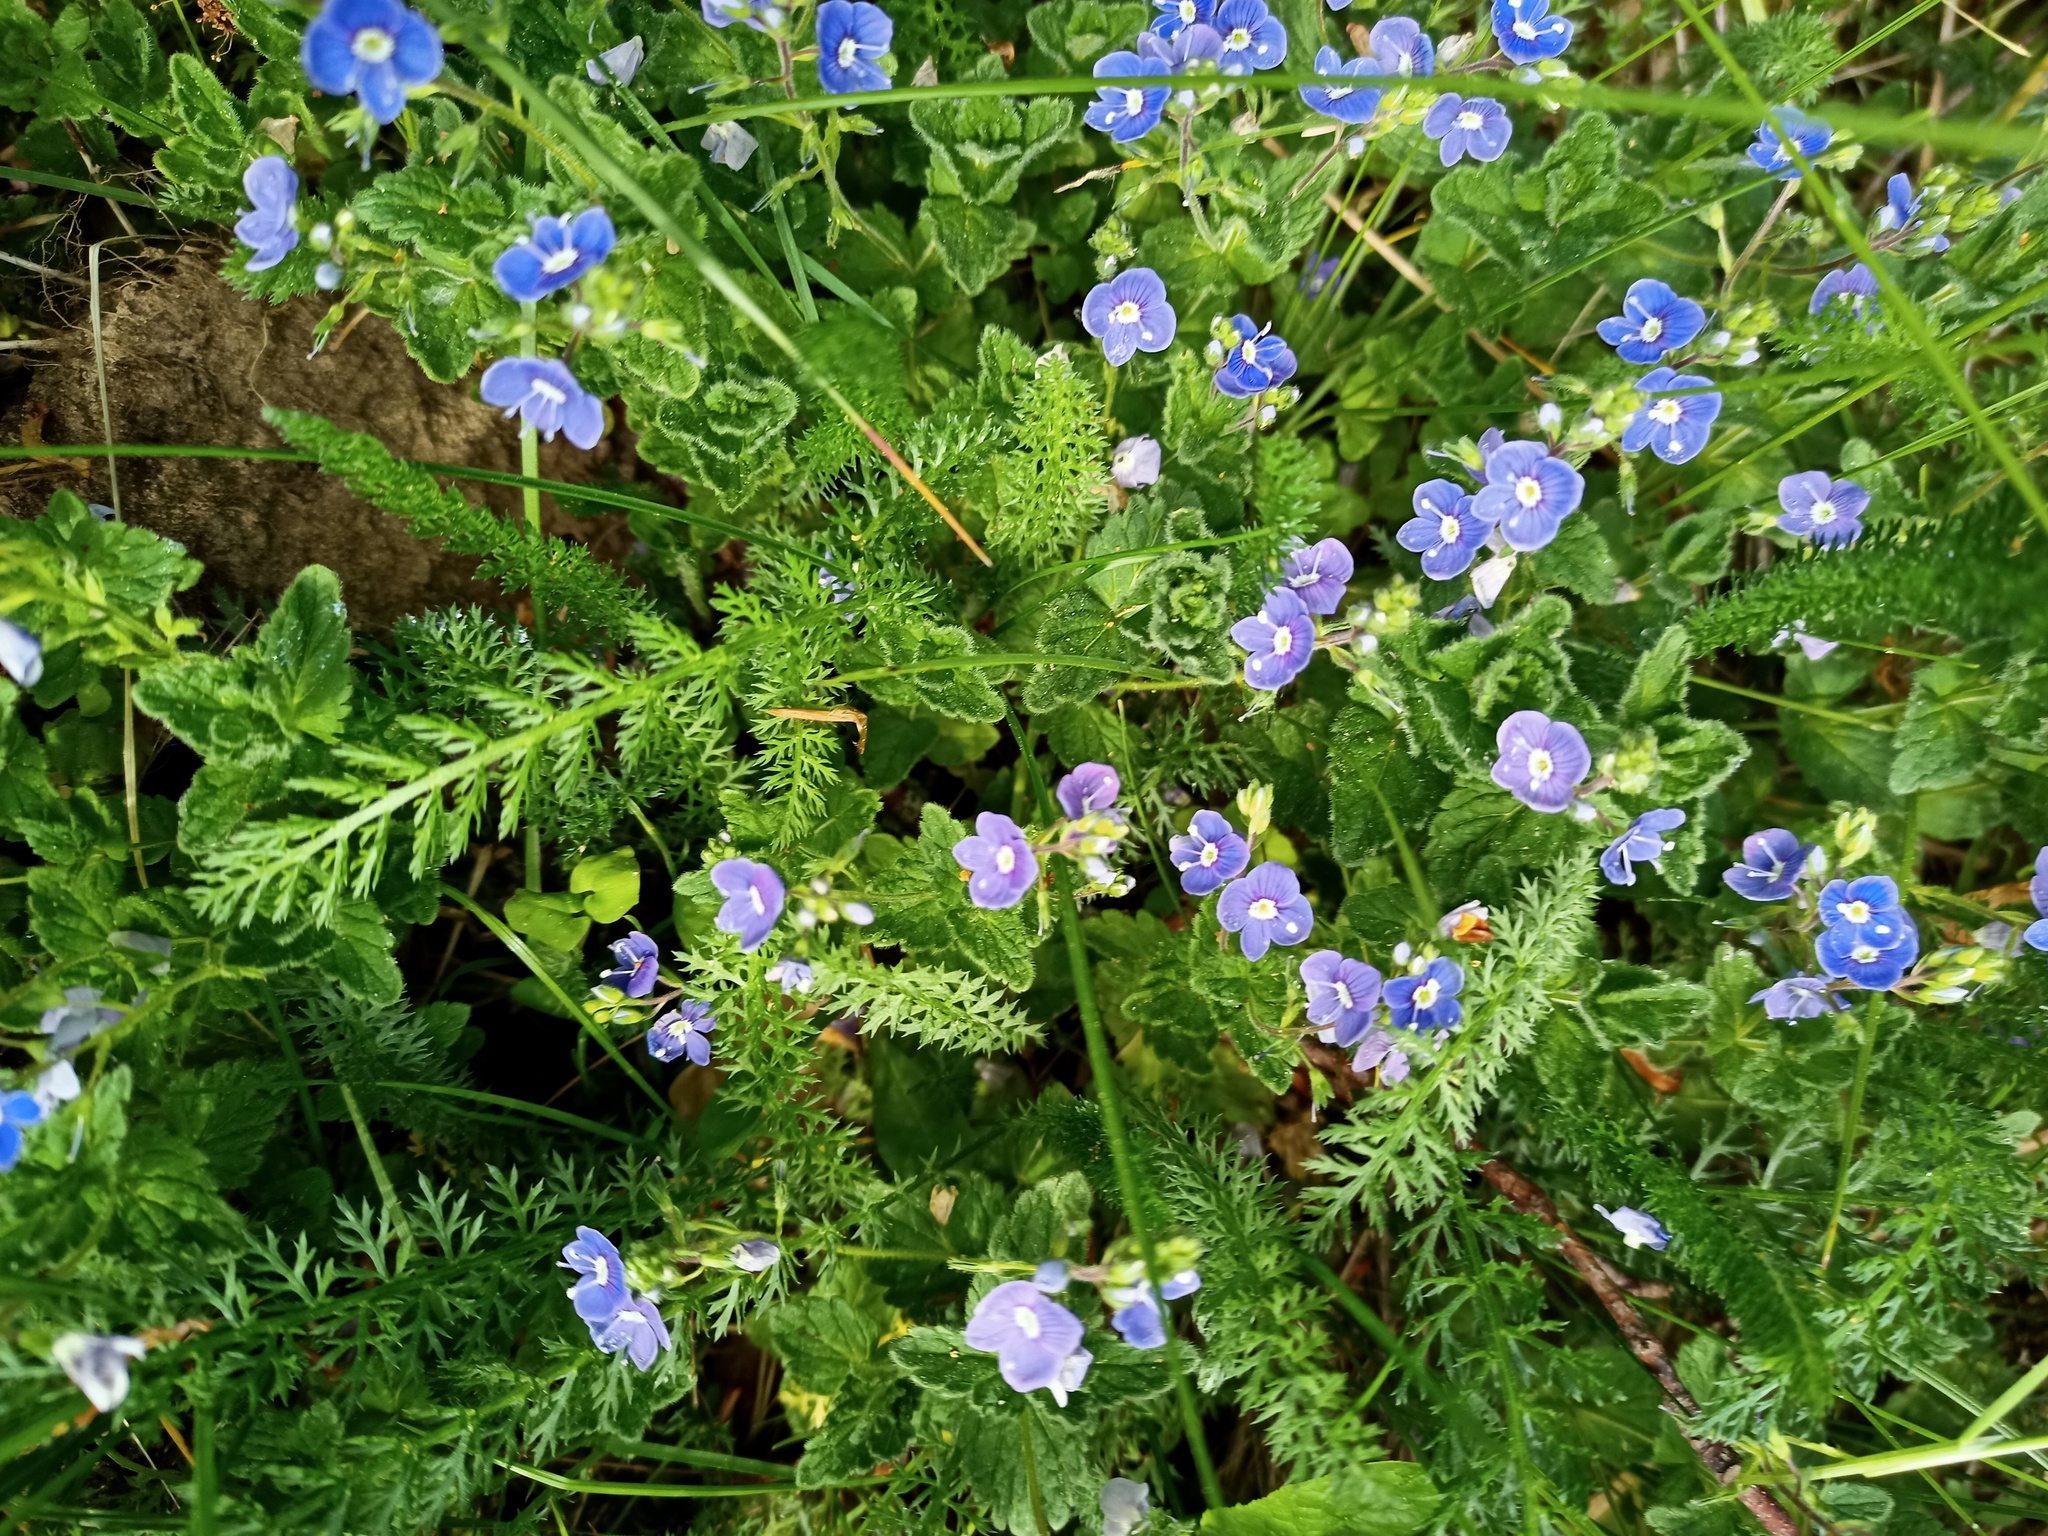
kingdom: Plantae
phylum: Tracheophyta
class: Magnoliopsida
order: Lamiales
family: Plantaginaceae
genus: Veronica
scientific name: Veronica chamaedrys
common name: Germander speedwell
